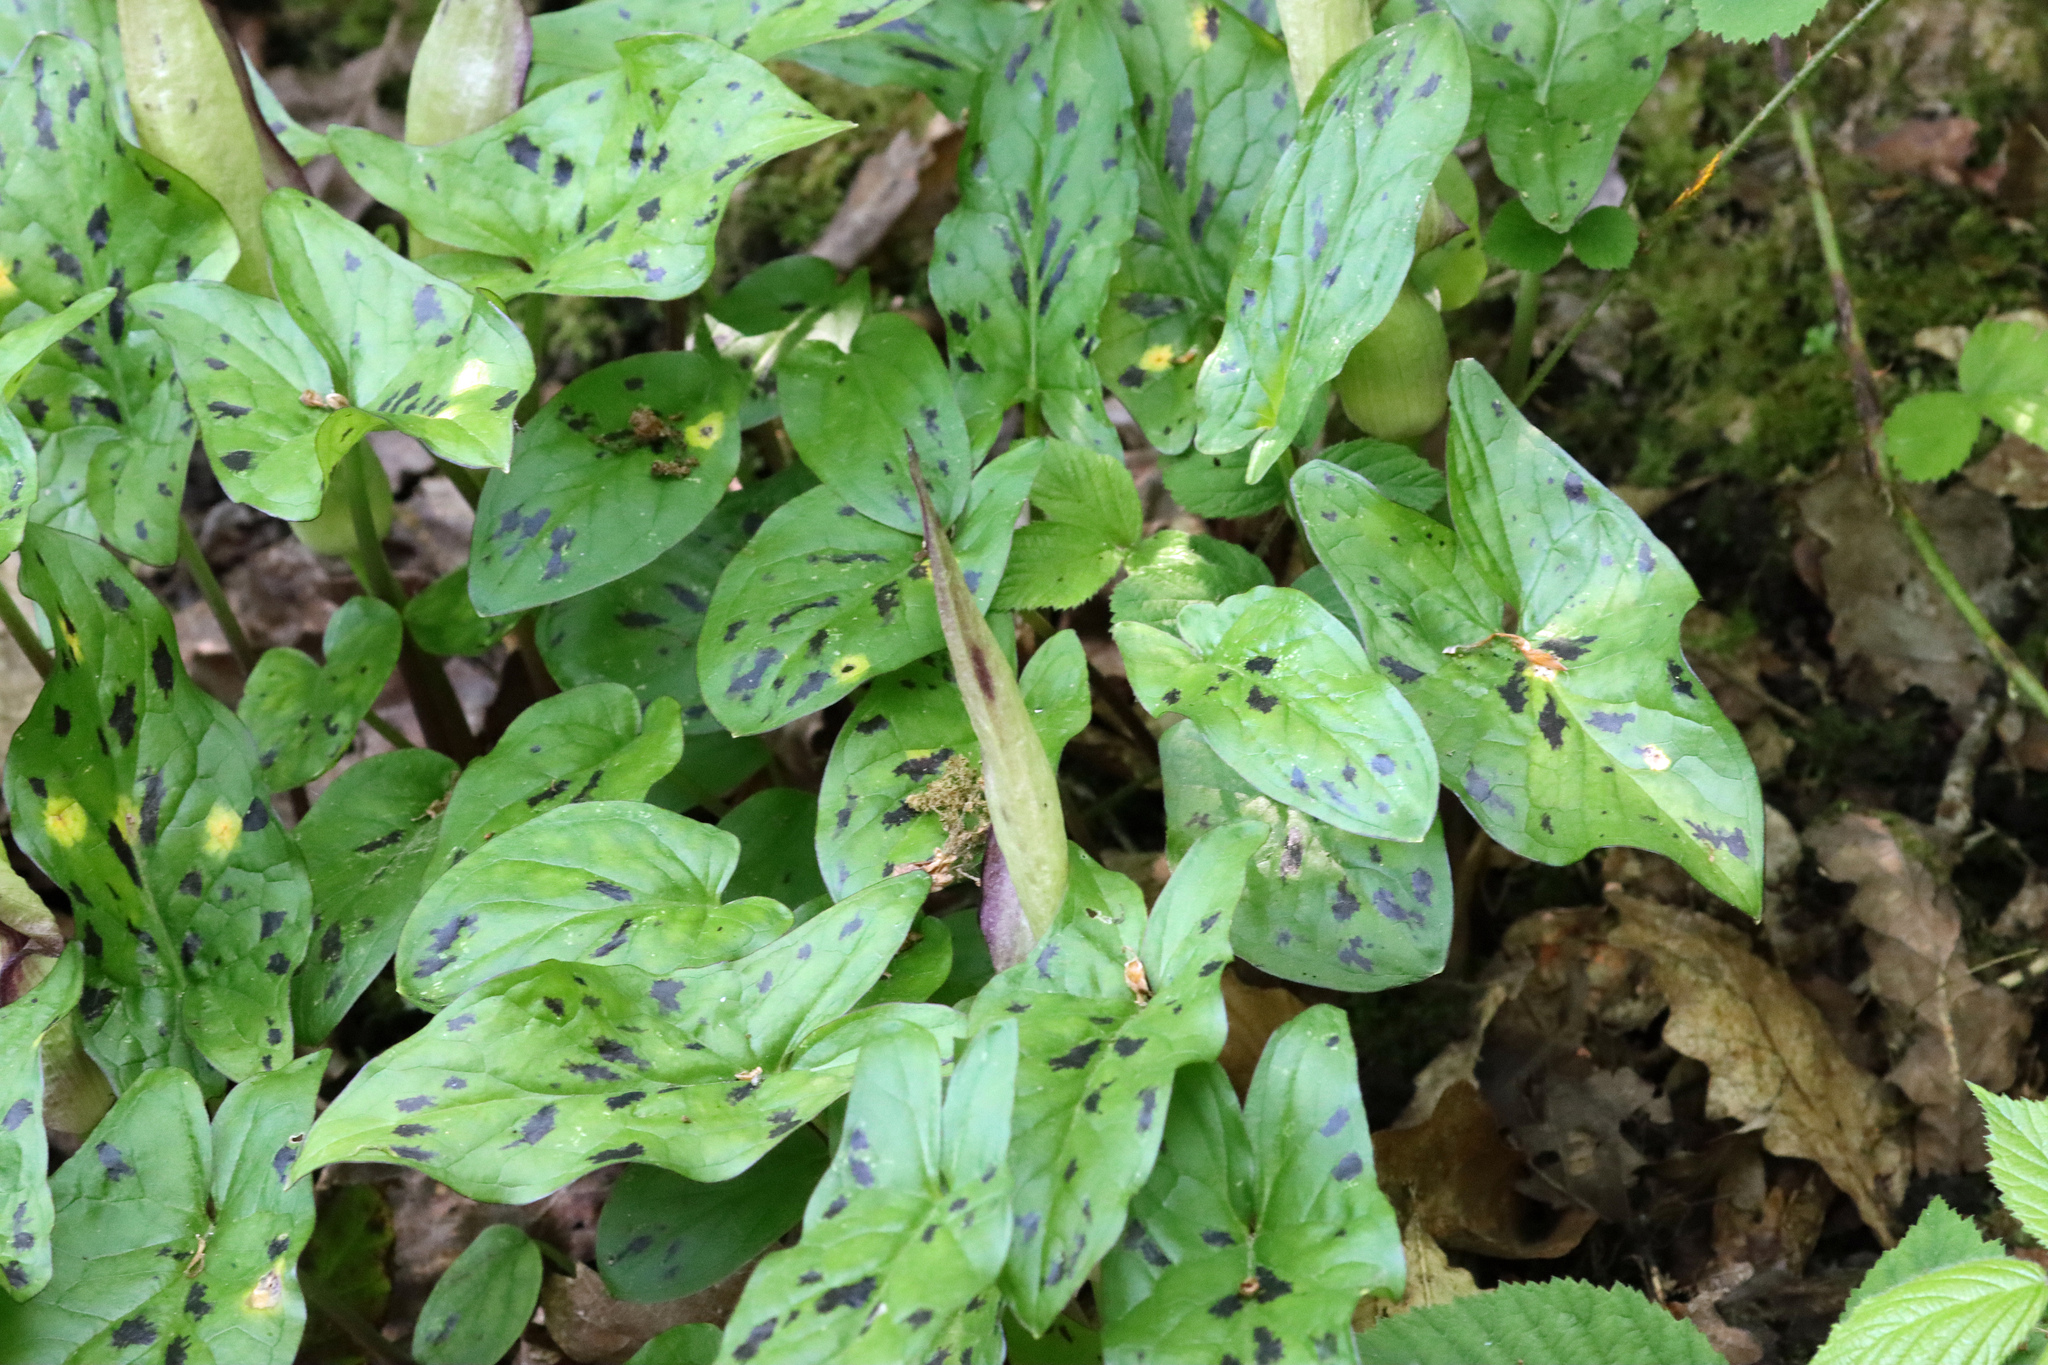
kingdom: Plantae
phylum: Tracheophyta
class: Liliopsida
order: Alismatales
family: Araceae
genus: Arum
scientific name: Arum maculatum
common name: Lords-and-ladies
